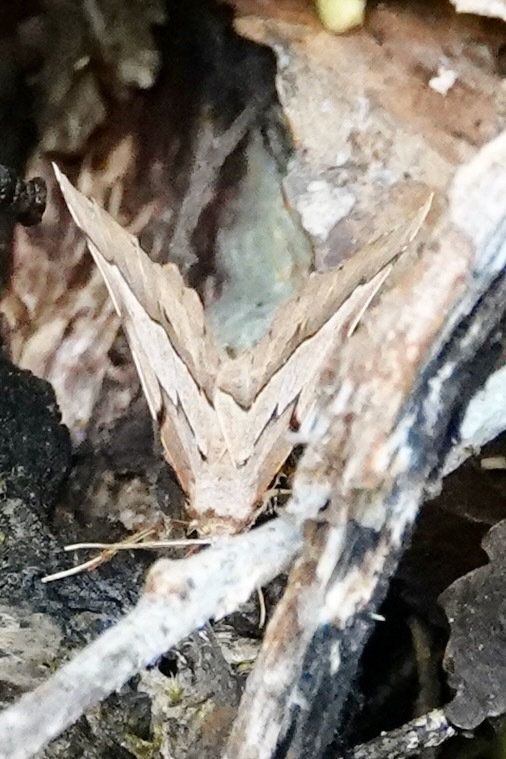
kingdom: Animalia
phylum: Arthropoda
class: Insecta
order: Lepidoptera
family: Geometridae
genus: Ischalis
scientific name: Ischalis fortinata
